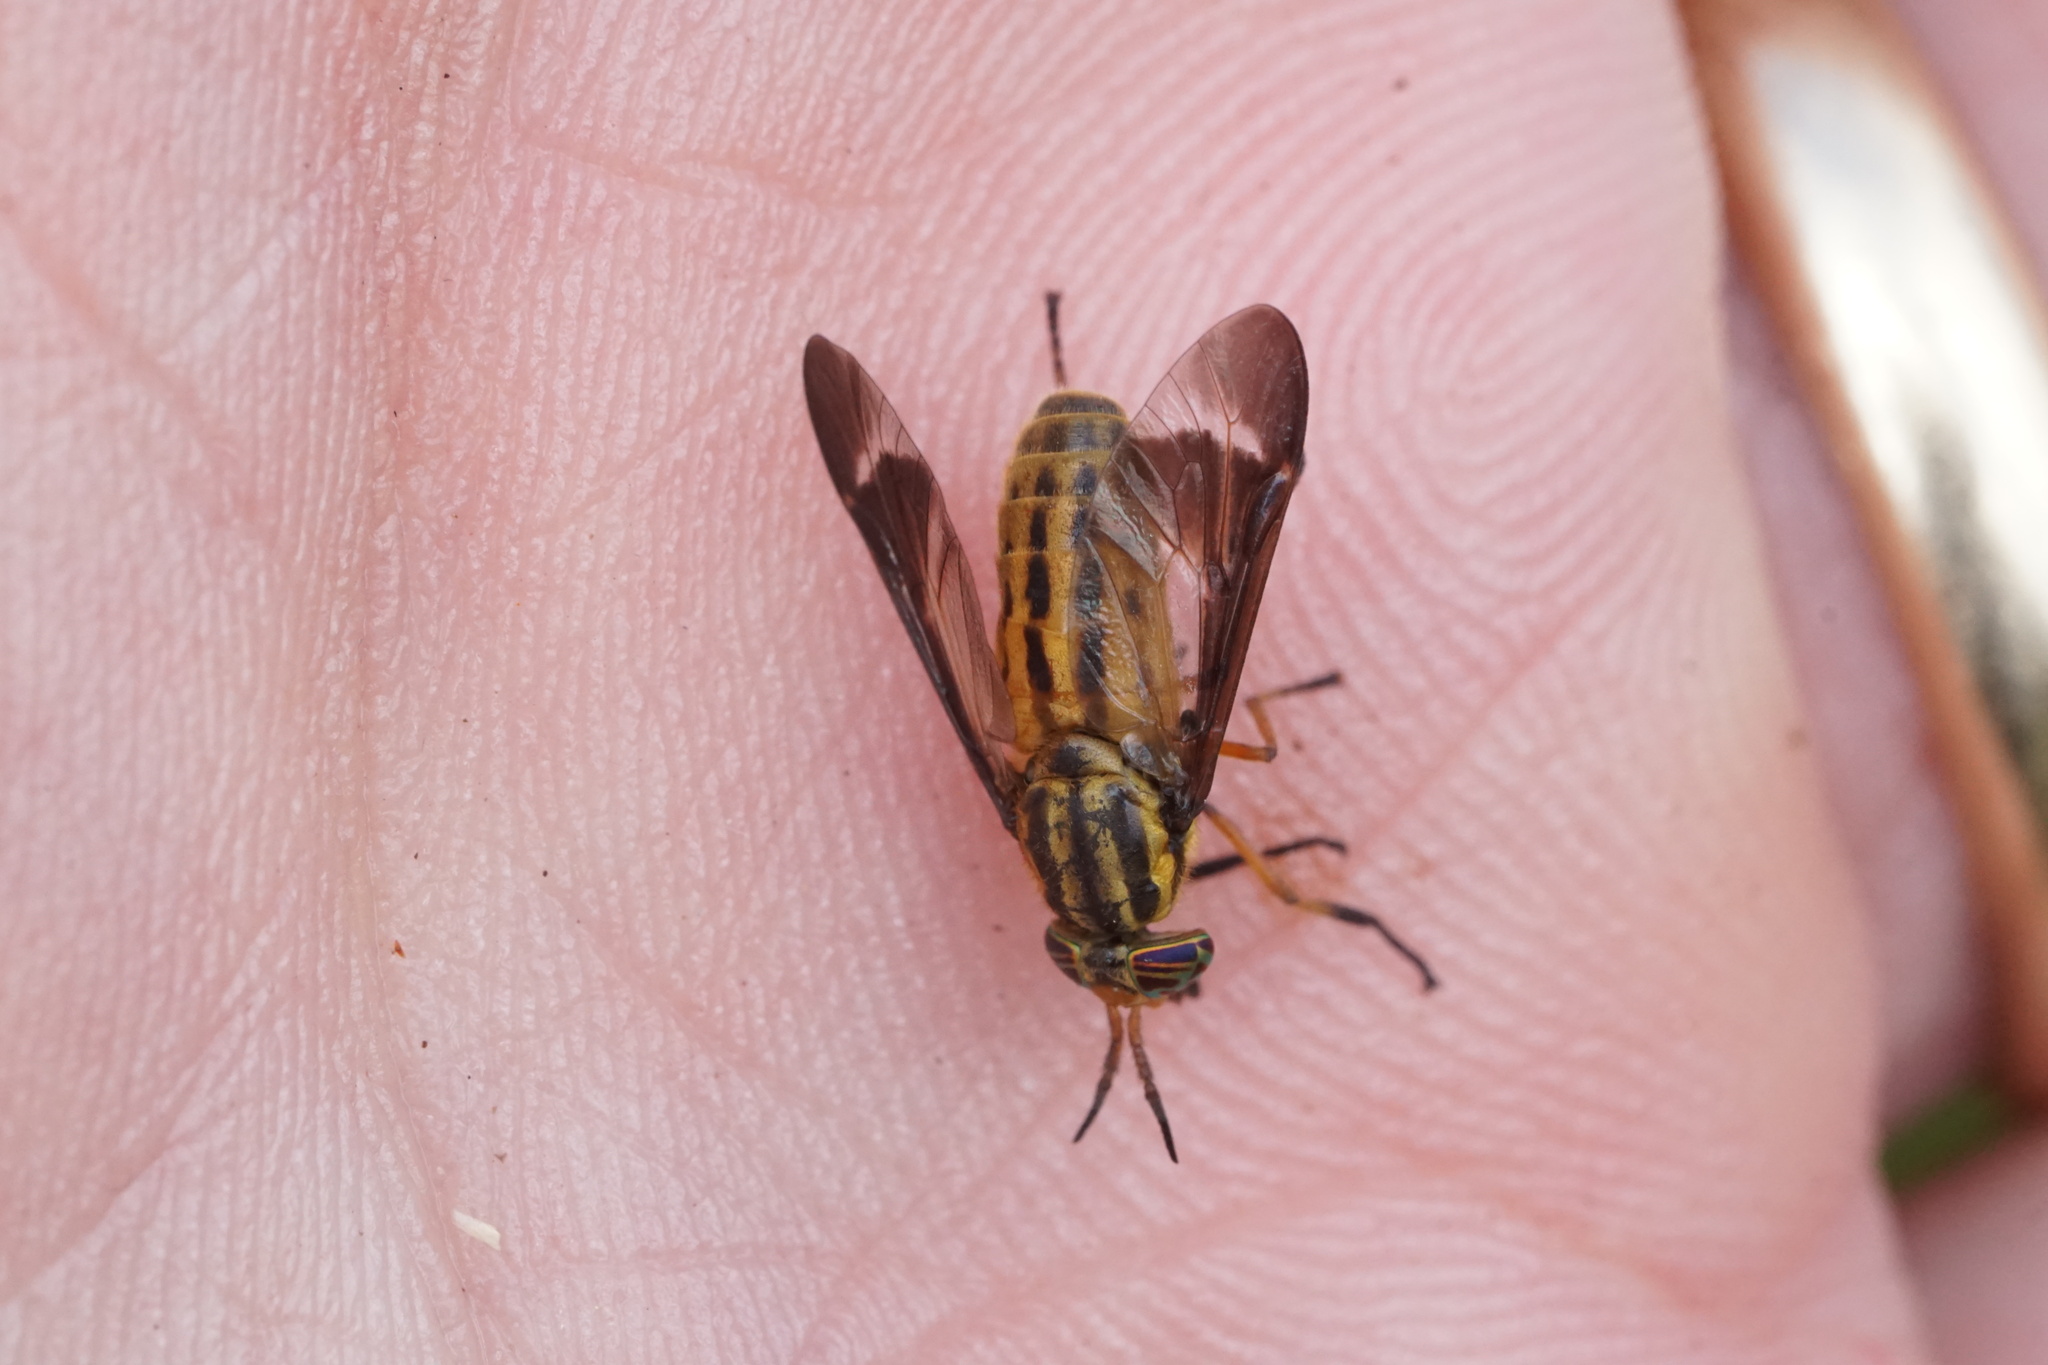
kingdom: Animalia
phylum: Arthropoda
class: Insecta
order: Diptera
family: Tabanidae
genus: Chrysops
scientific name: Chrysops pikei
